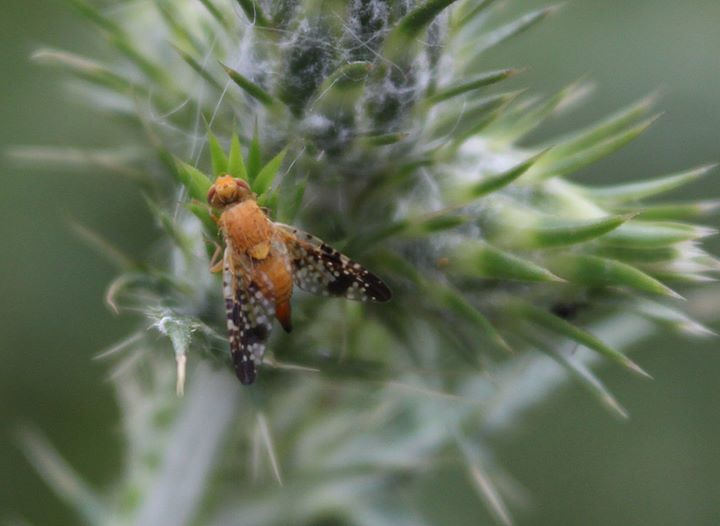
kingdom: Animalia
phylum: Arthropoda
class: Insecta
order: Diptera
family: Tephritidae
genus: Xyphosia
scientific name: Xyphosia miliaria
